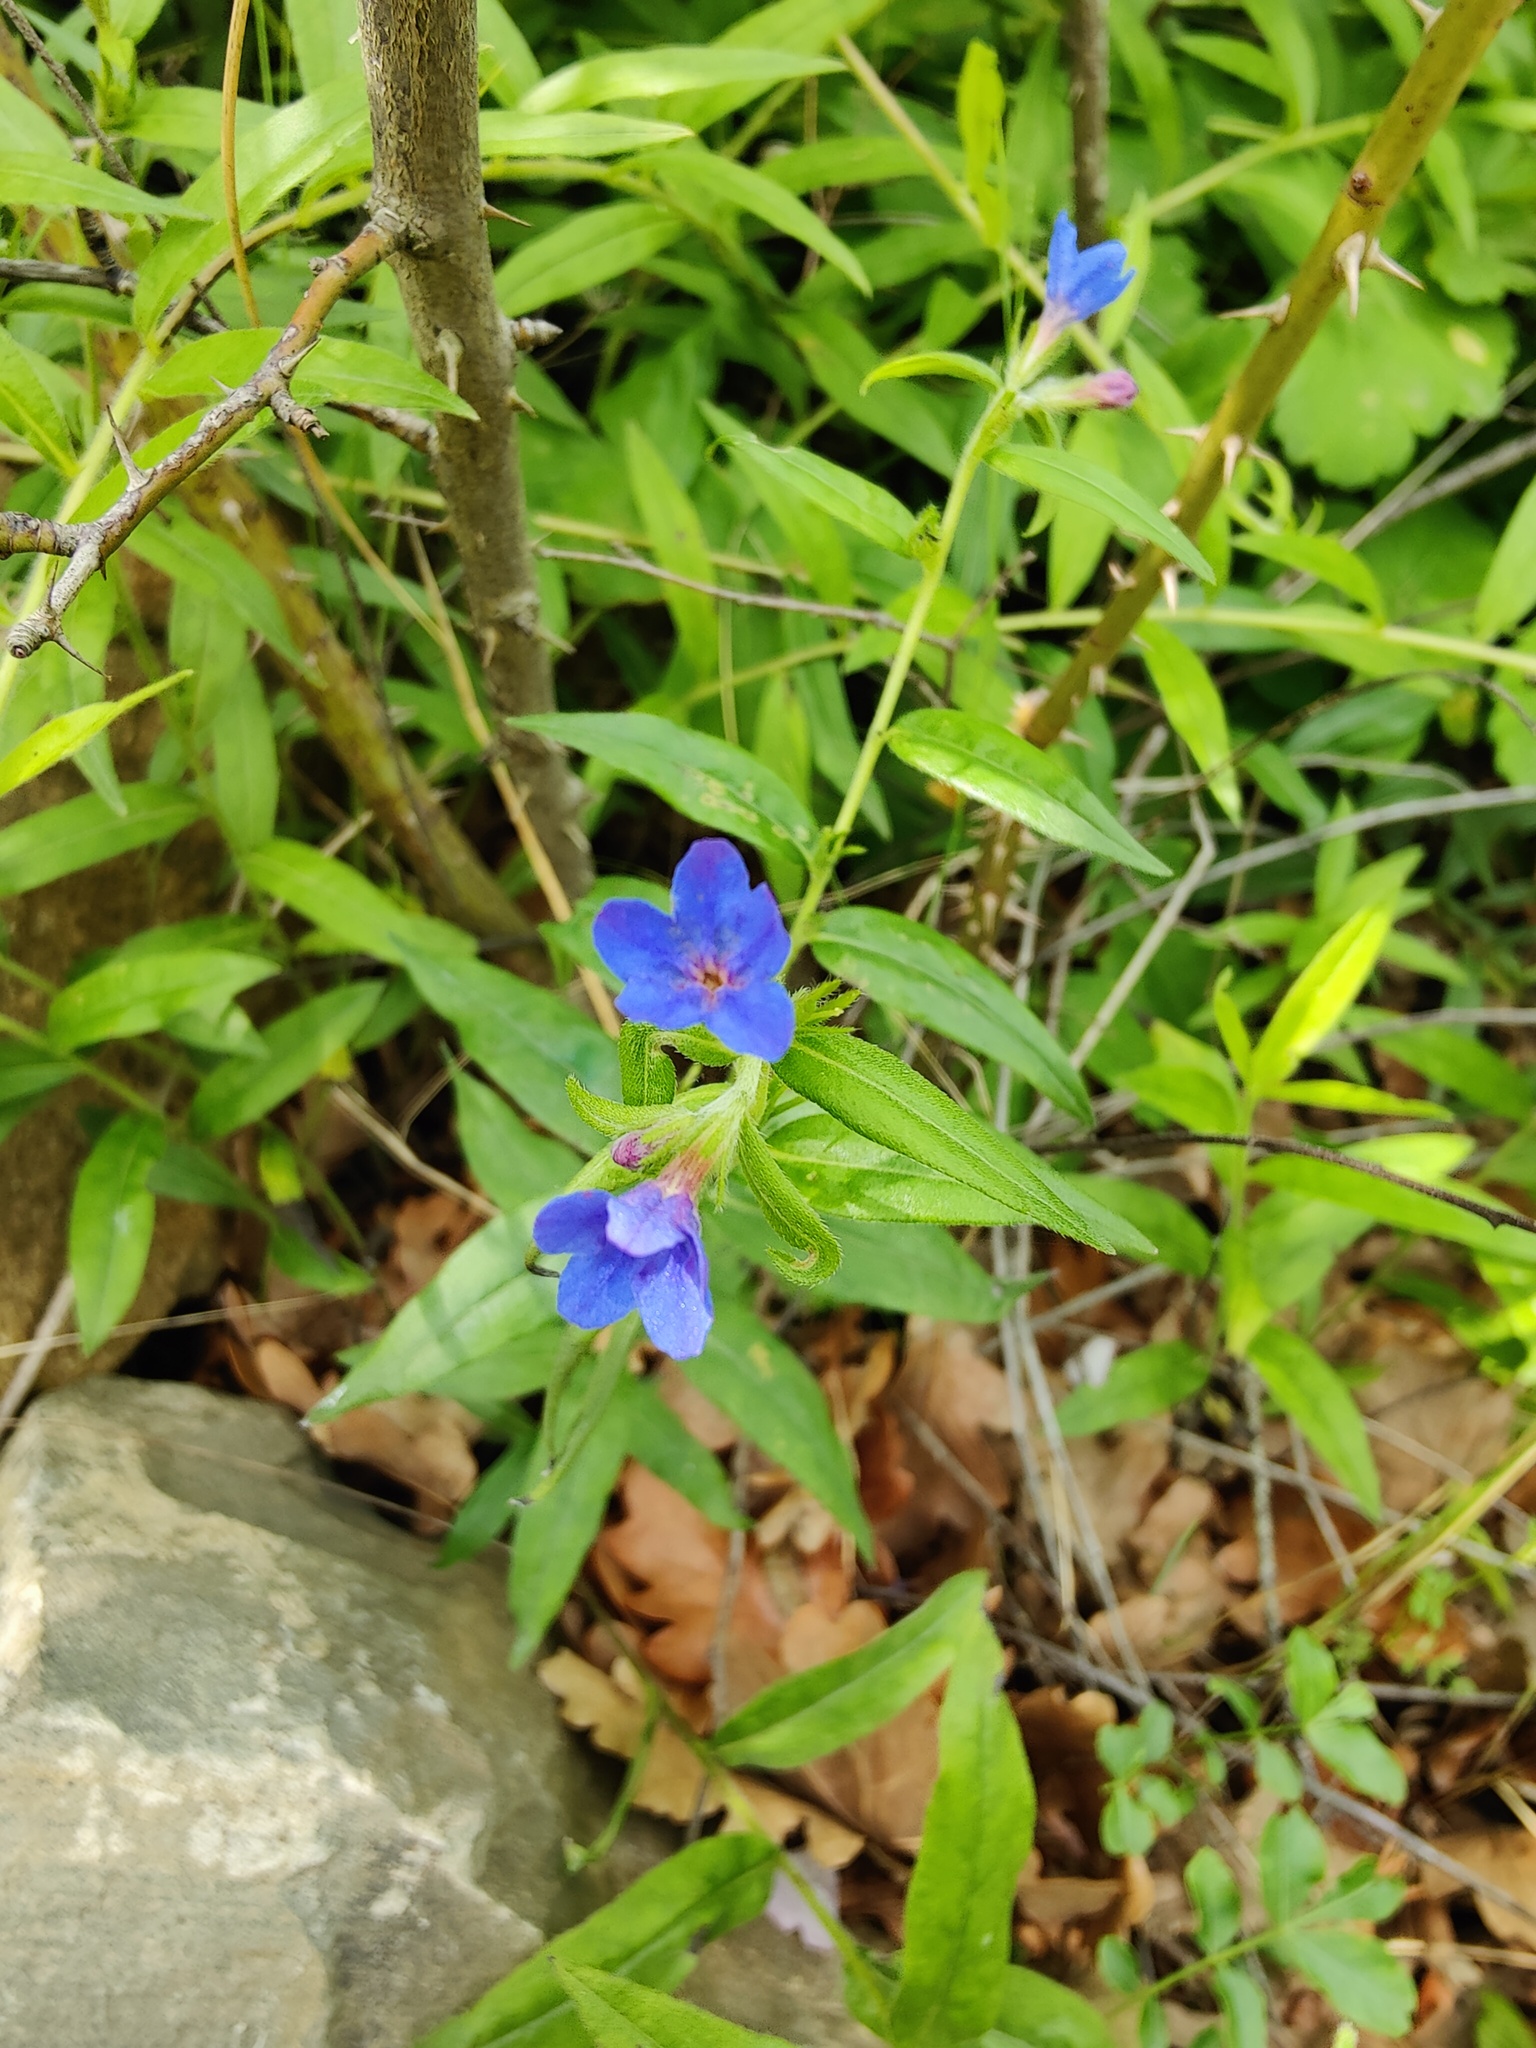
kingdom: Plantae
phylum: Tracheophyta
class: Magnoliopsida
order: Boraginales
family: Boraginaceae
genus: Aegonychon
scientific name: Aegonychon purpurocaeruleum
